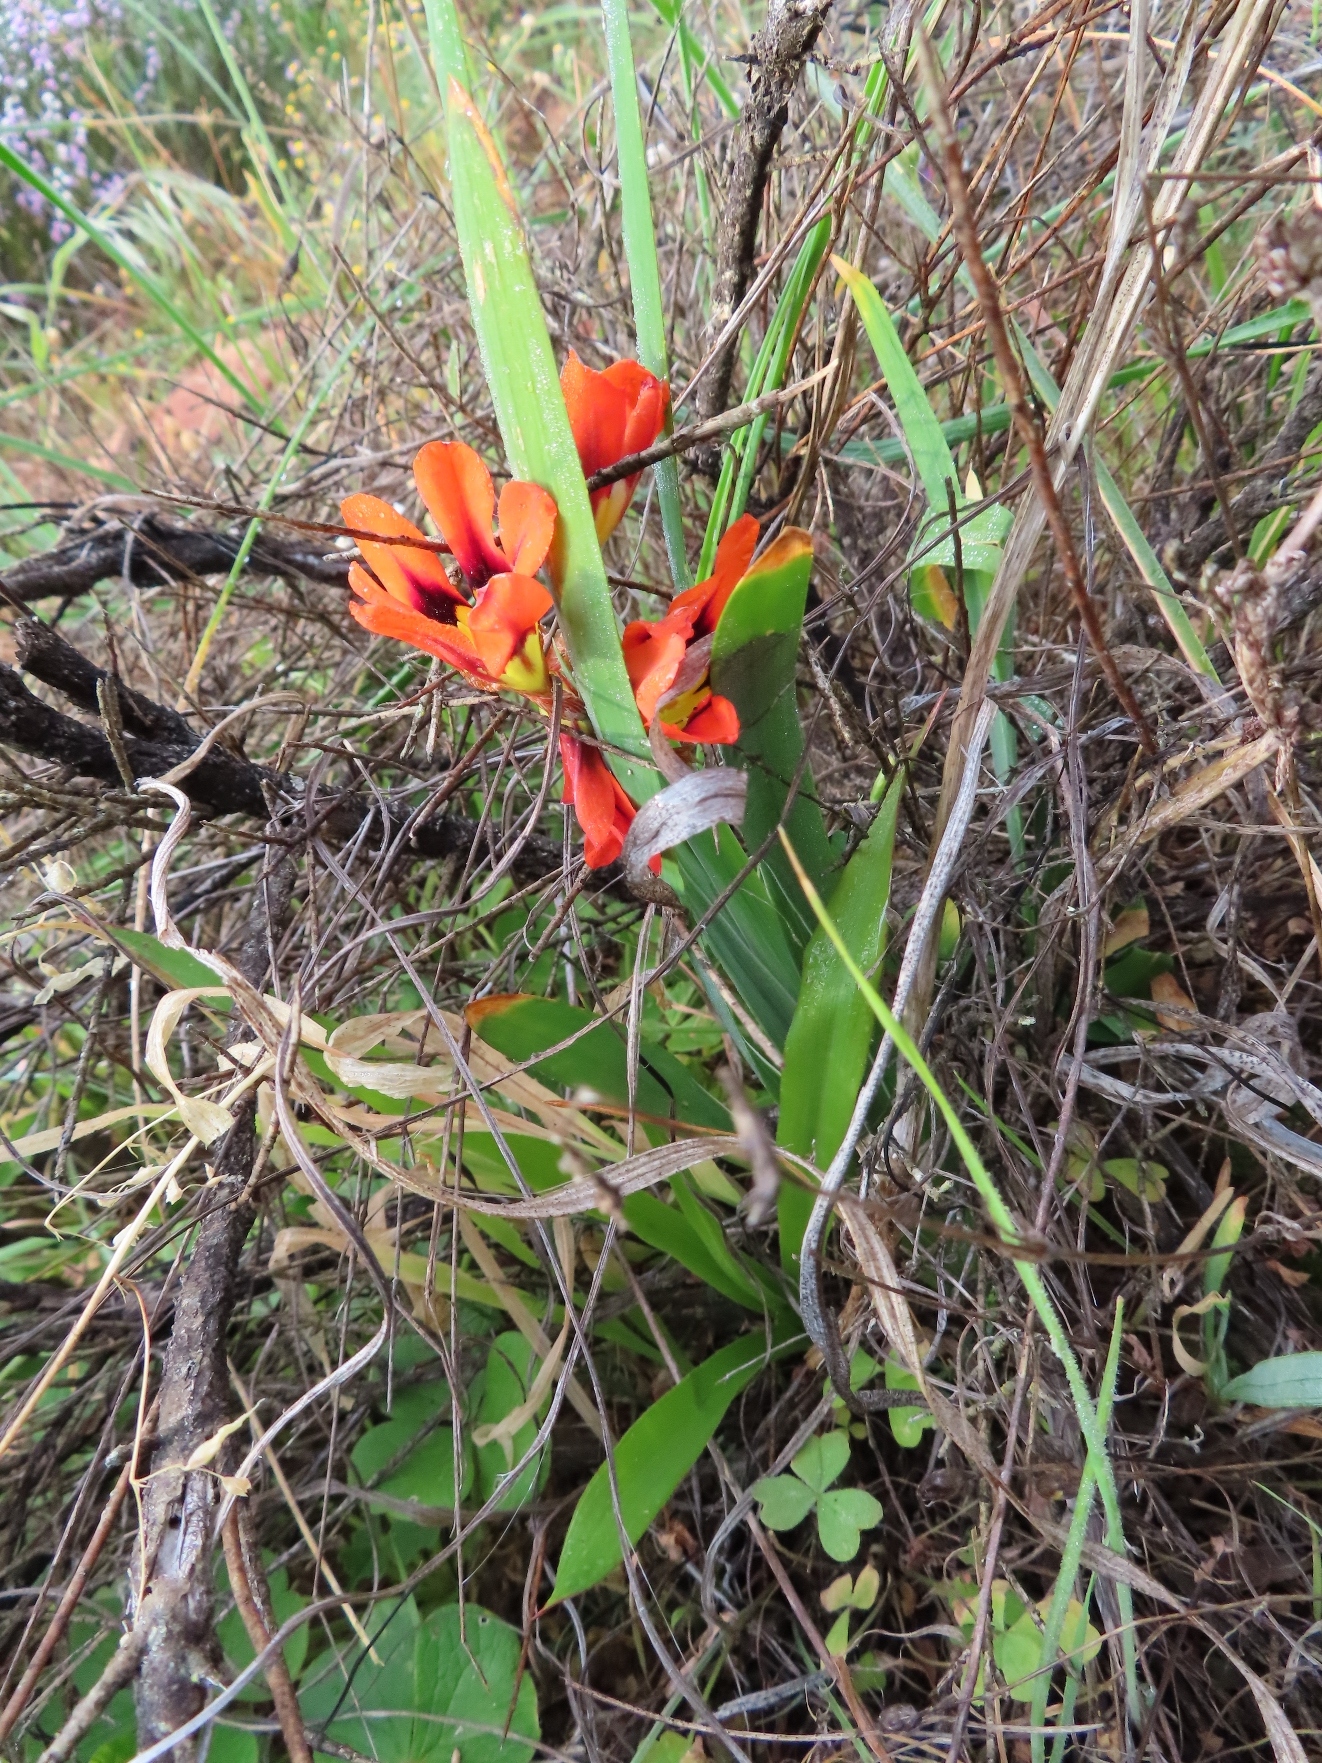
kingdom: Plantae
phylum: Tracheophyta
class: Liliopsida
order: Asparagales
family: Iridaceae
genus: Sparaxis
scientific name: Sparaxis tricolor
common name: Wandflower
